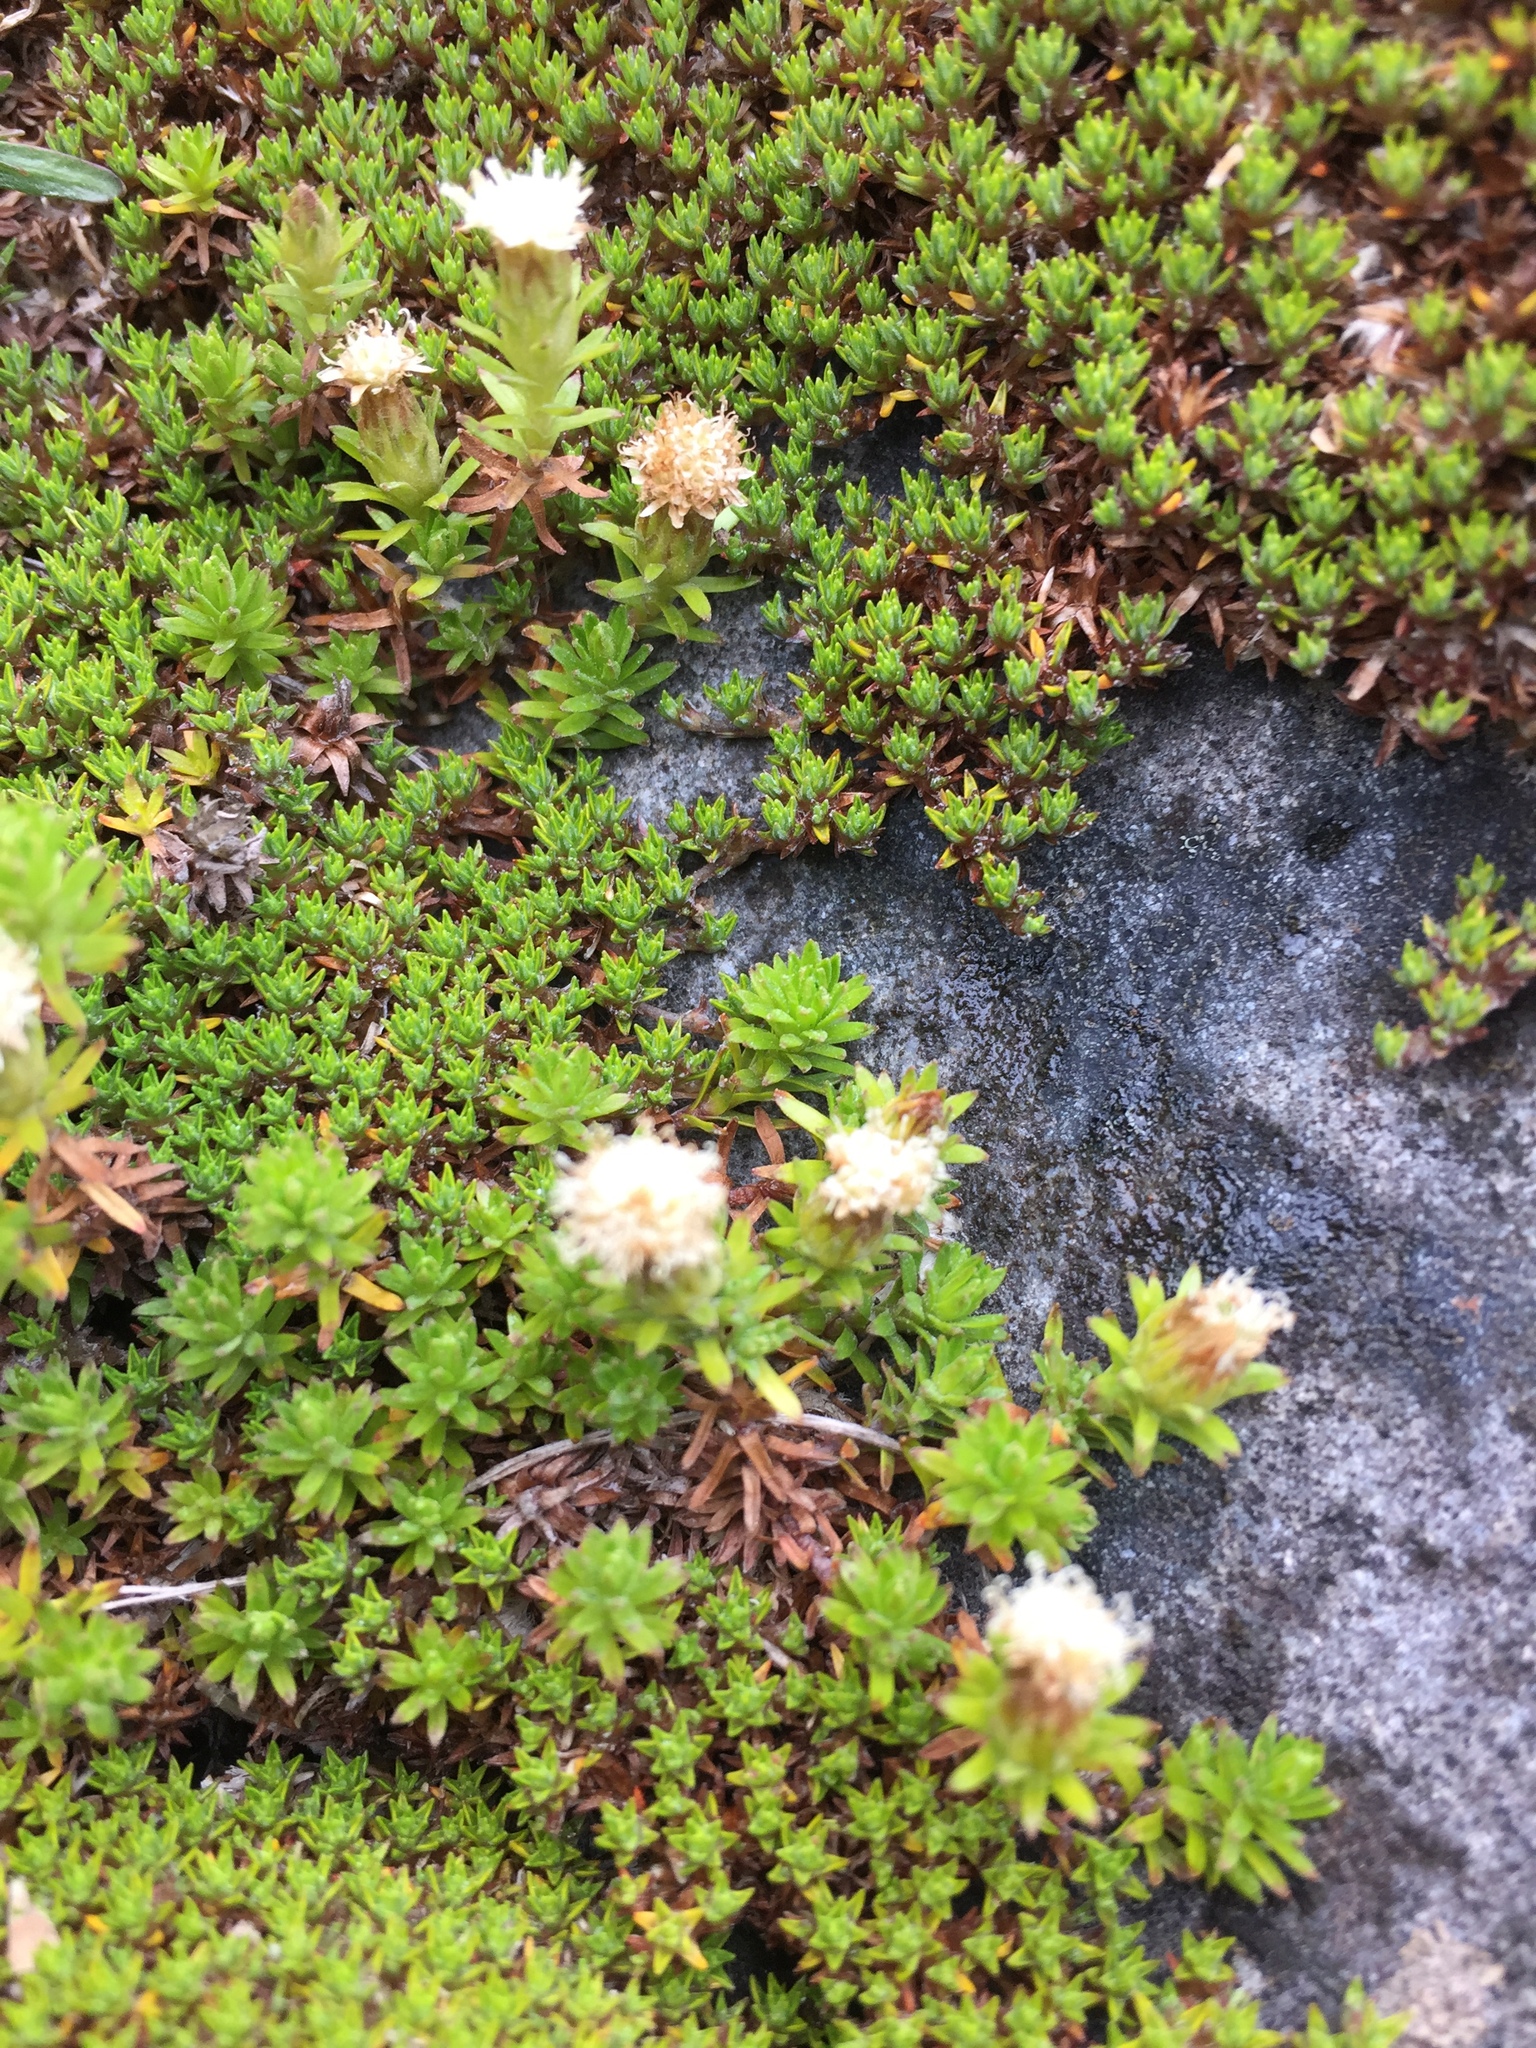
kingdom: Plantae
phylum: Tracheophyta
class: Magnoliopsida
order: Asterales
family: Asteraceae
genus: Raoulia
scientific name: Raoulia glabra
